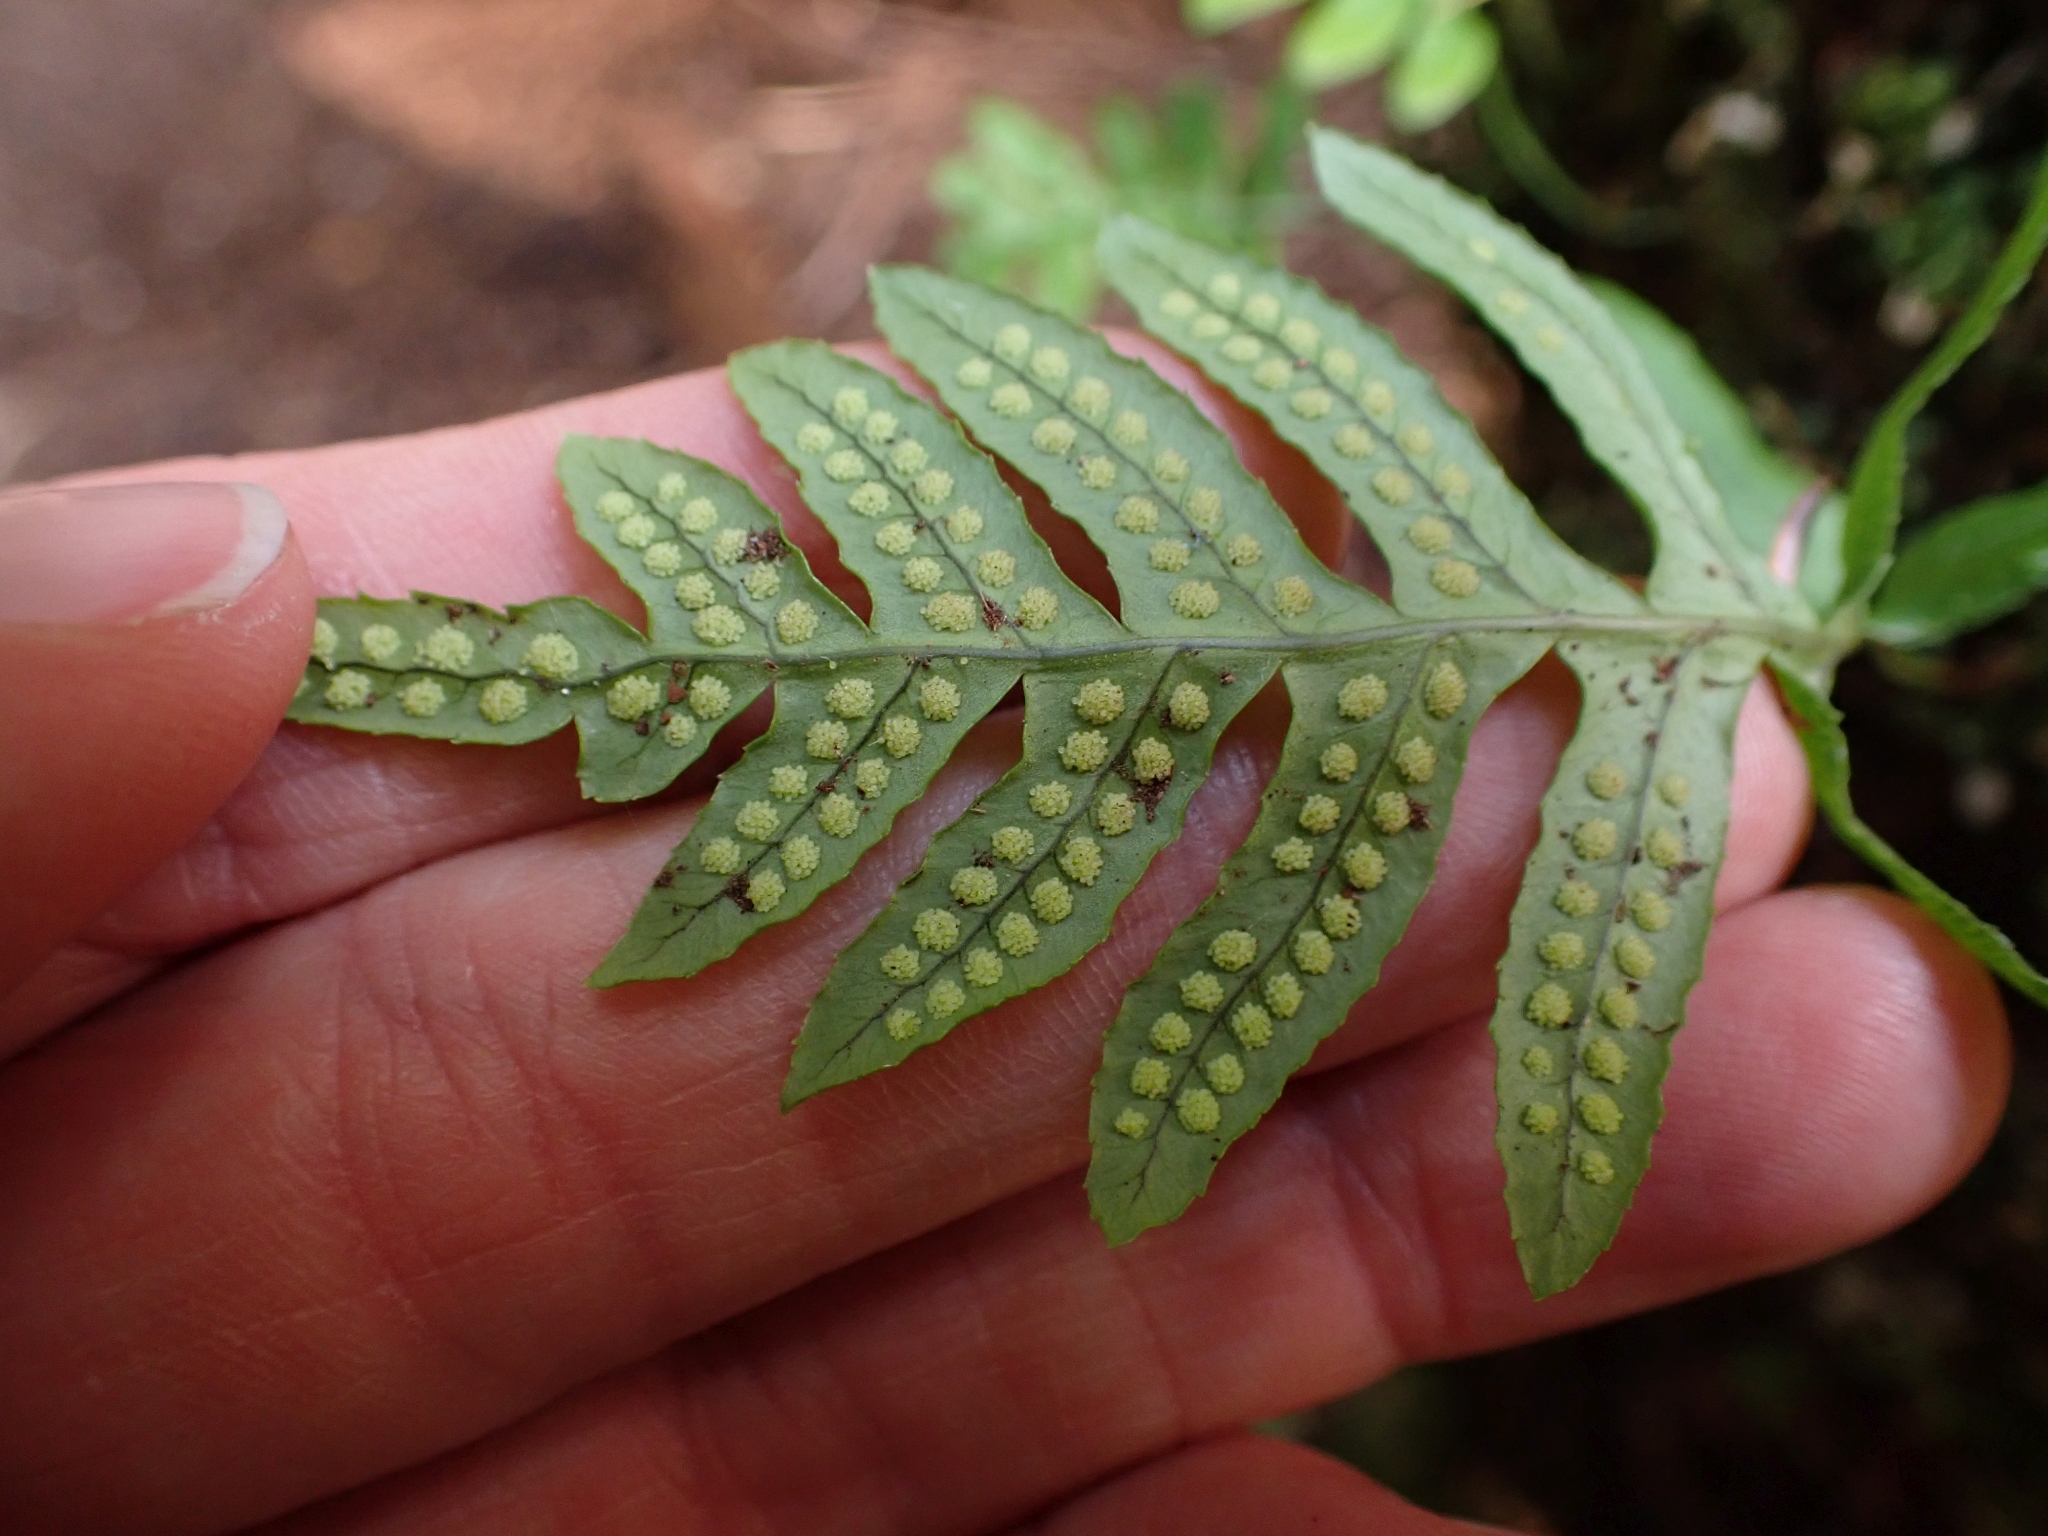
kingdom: Plantae
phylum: Tracheophyta
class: Polypodiopsida
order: Polypodiales
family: Polypodiaceae
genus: Polypodium
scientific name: Polypodium glycyrrhiza
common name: Licorice fern
